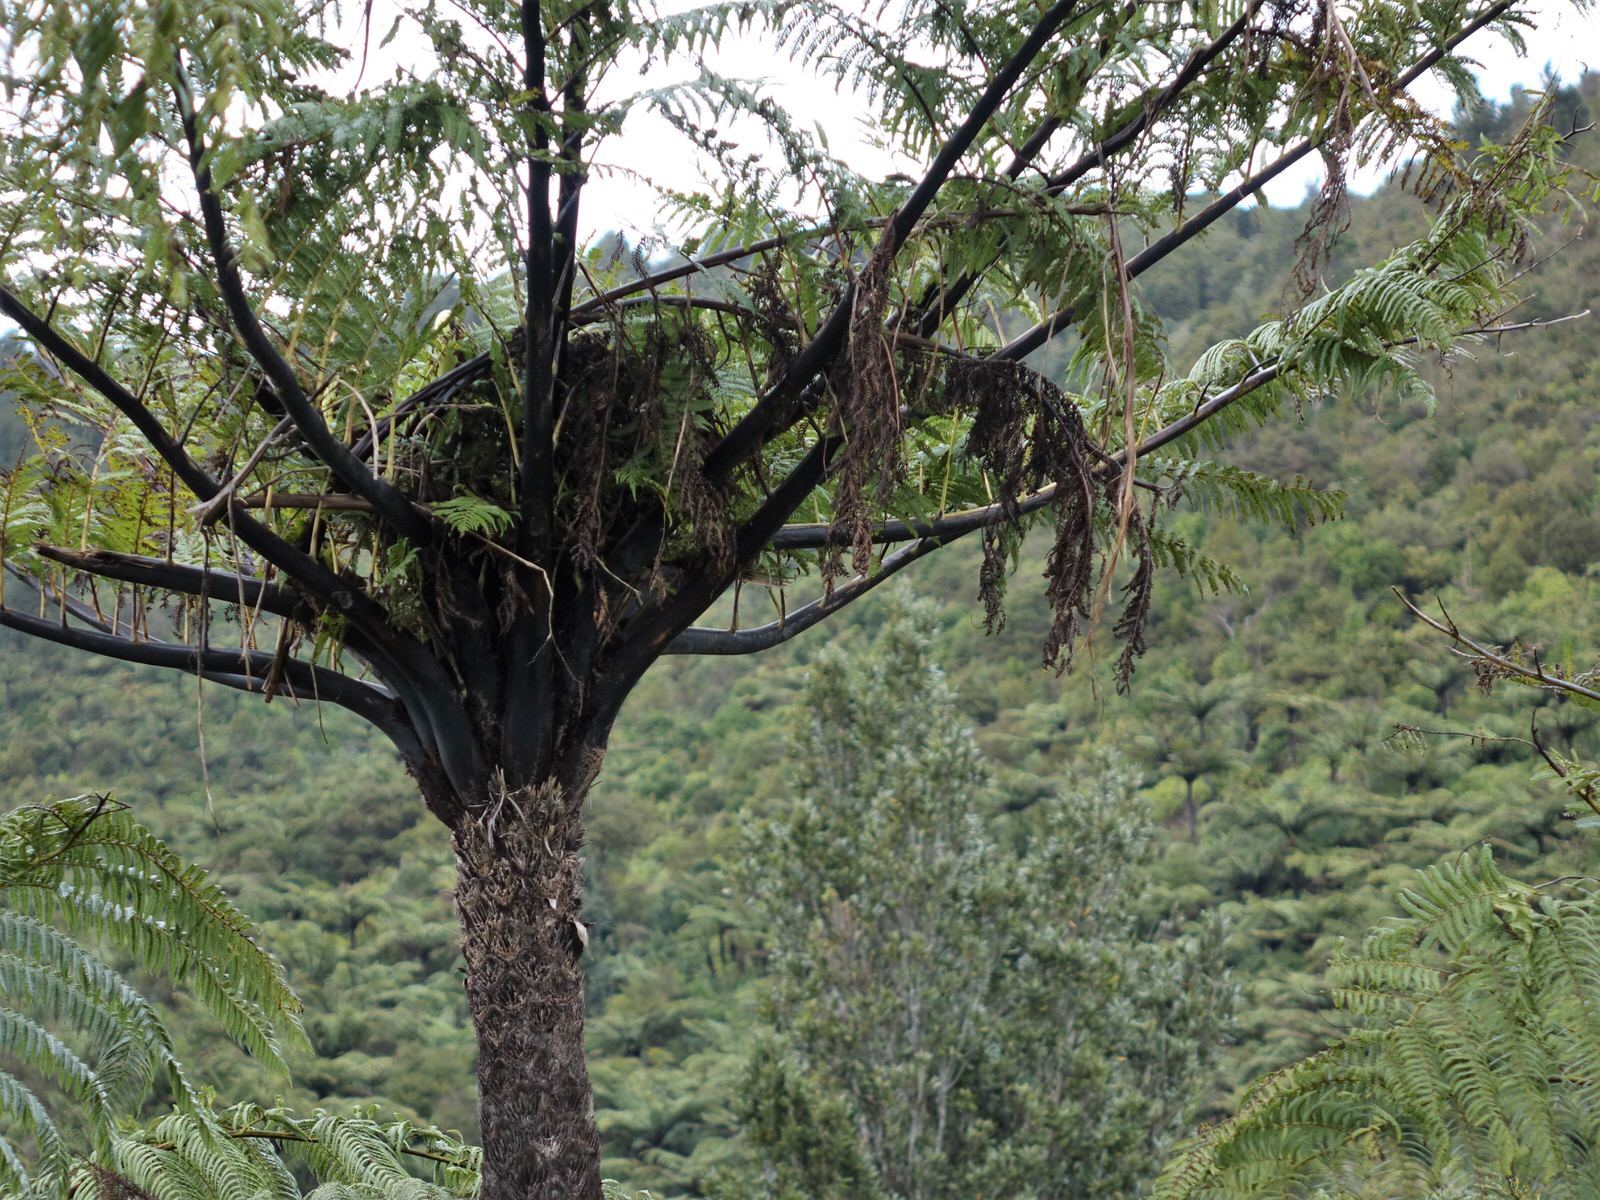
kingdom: Plantae
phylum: Tracheophyta
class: Polypodiopsida
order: Cyatheales
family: Cyatheaceae
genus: Sphaeropteris
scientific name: Sphaeropteris medullaris
